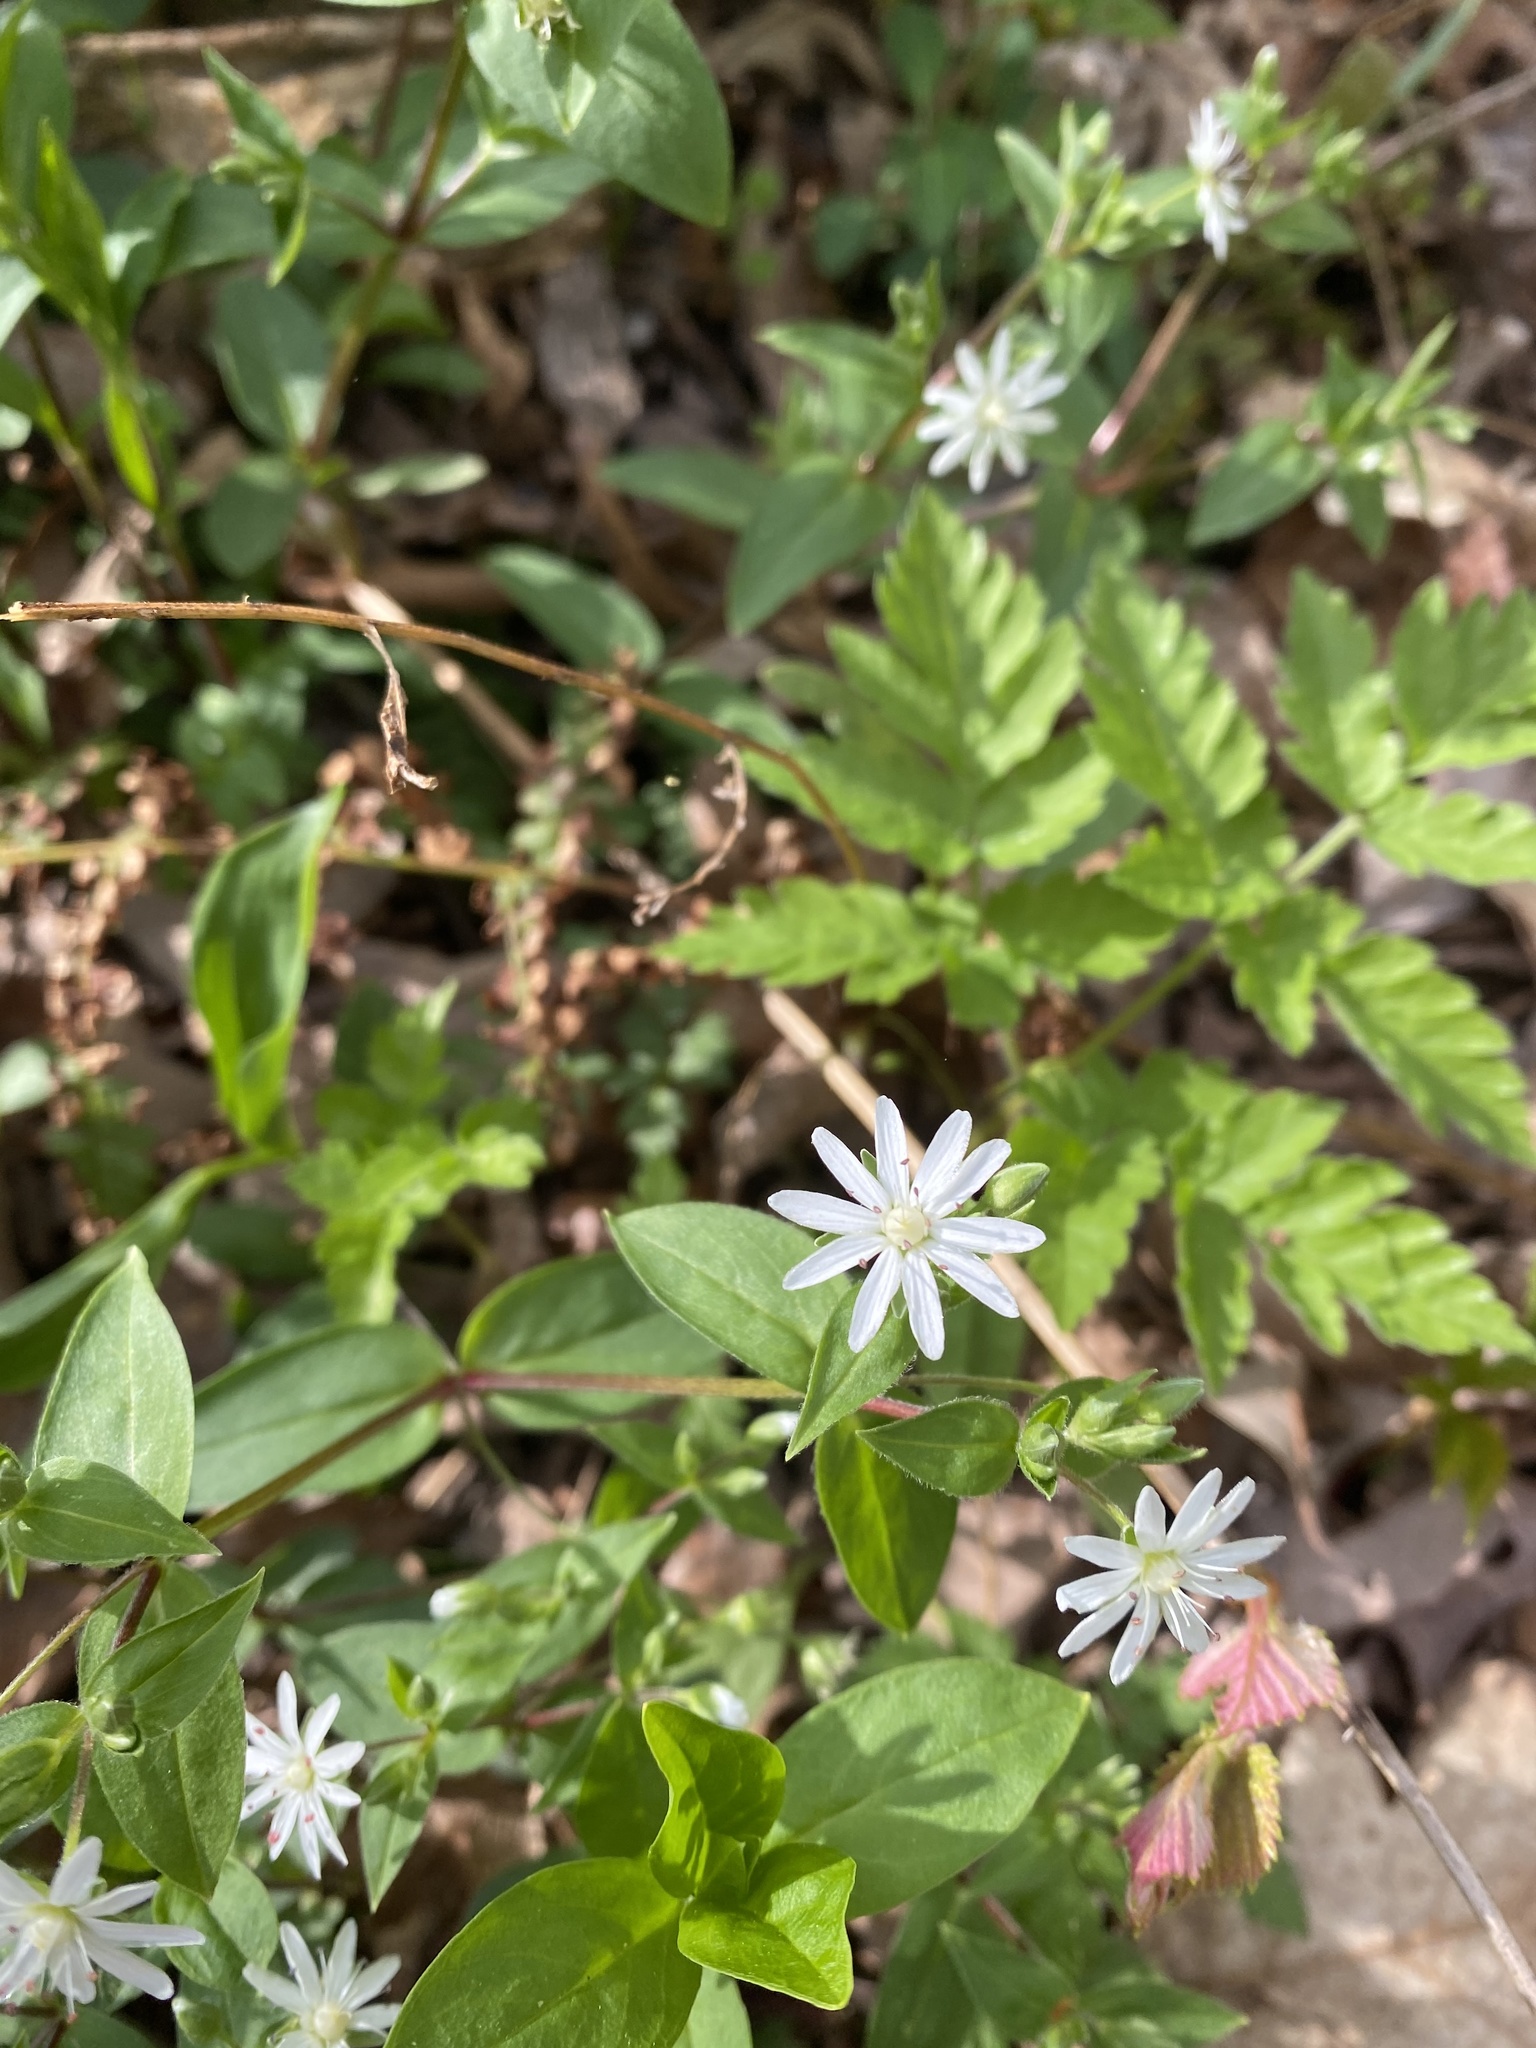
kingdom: Plantae
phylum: Tracheophyta
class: Magnoliopsida
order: Caryophyllales
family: Caryophyllaceae
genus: Stellaria
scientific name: Stellaria pubera
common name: Star chickweed
